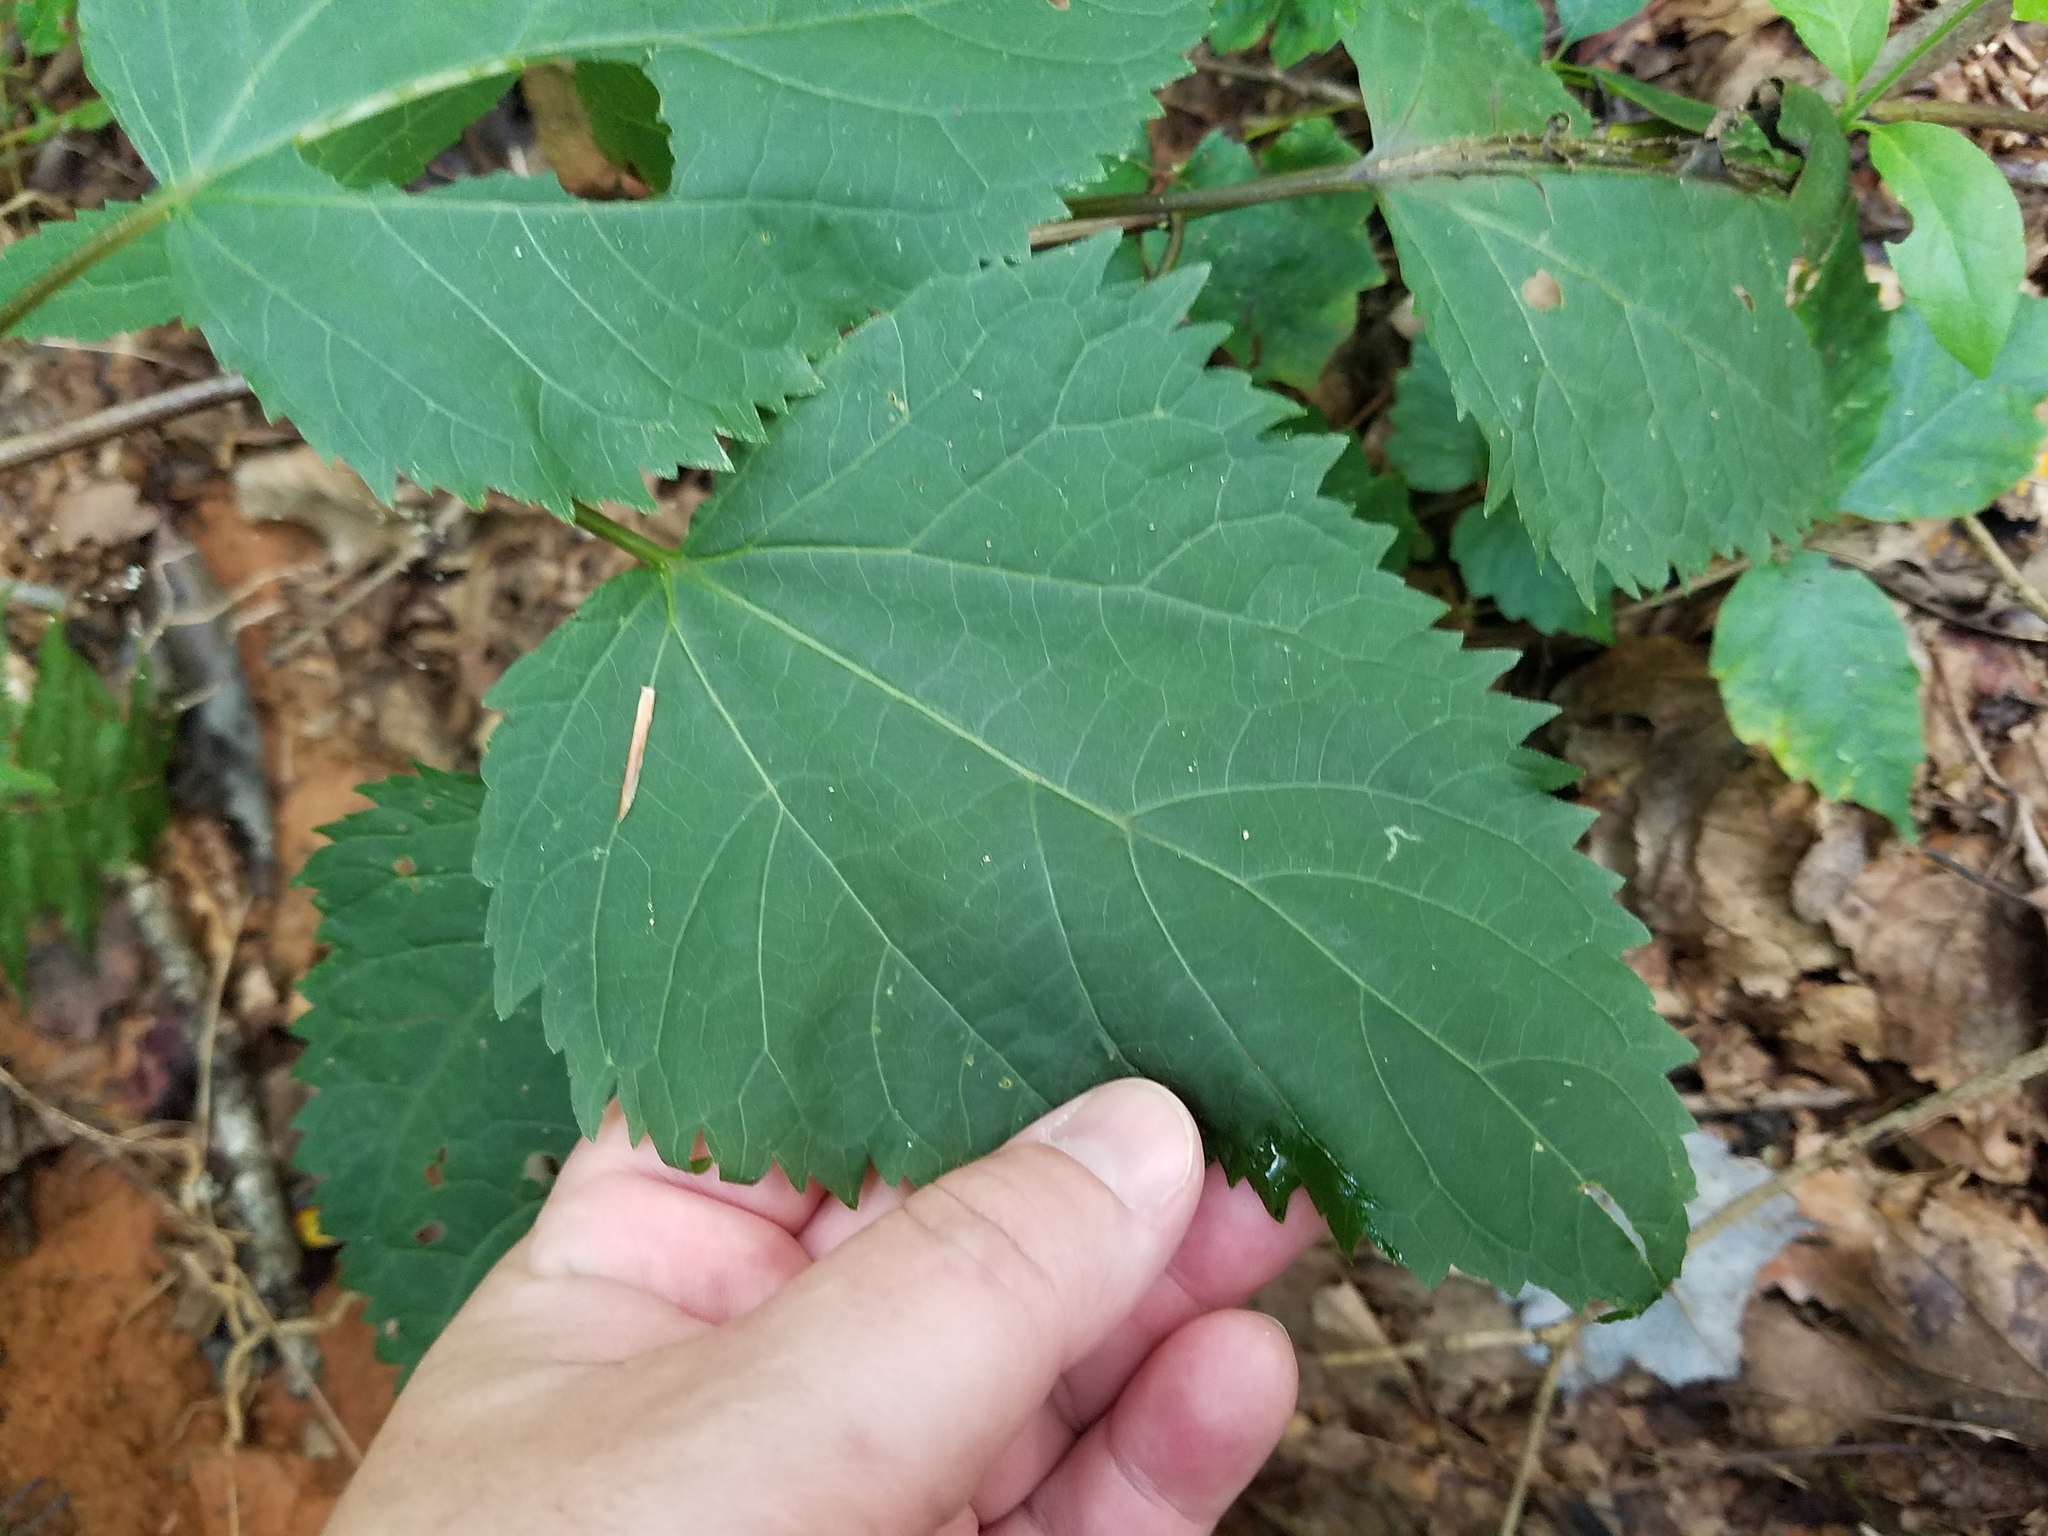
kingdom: Plantae
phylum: Tracheophyta
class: Magnoliopsida
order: Asterales
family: Asteraceae
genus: Ageratina
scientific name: Ageratina altissima
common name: White snakeroot
